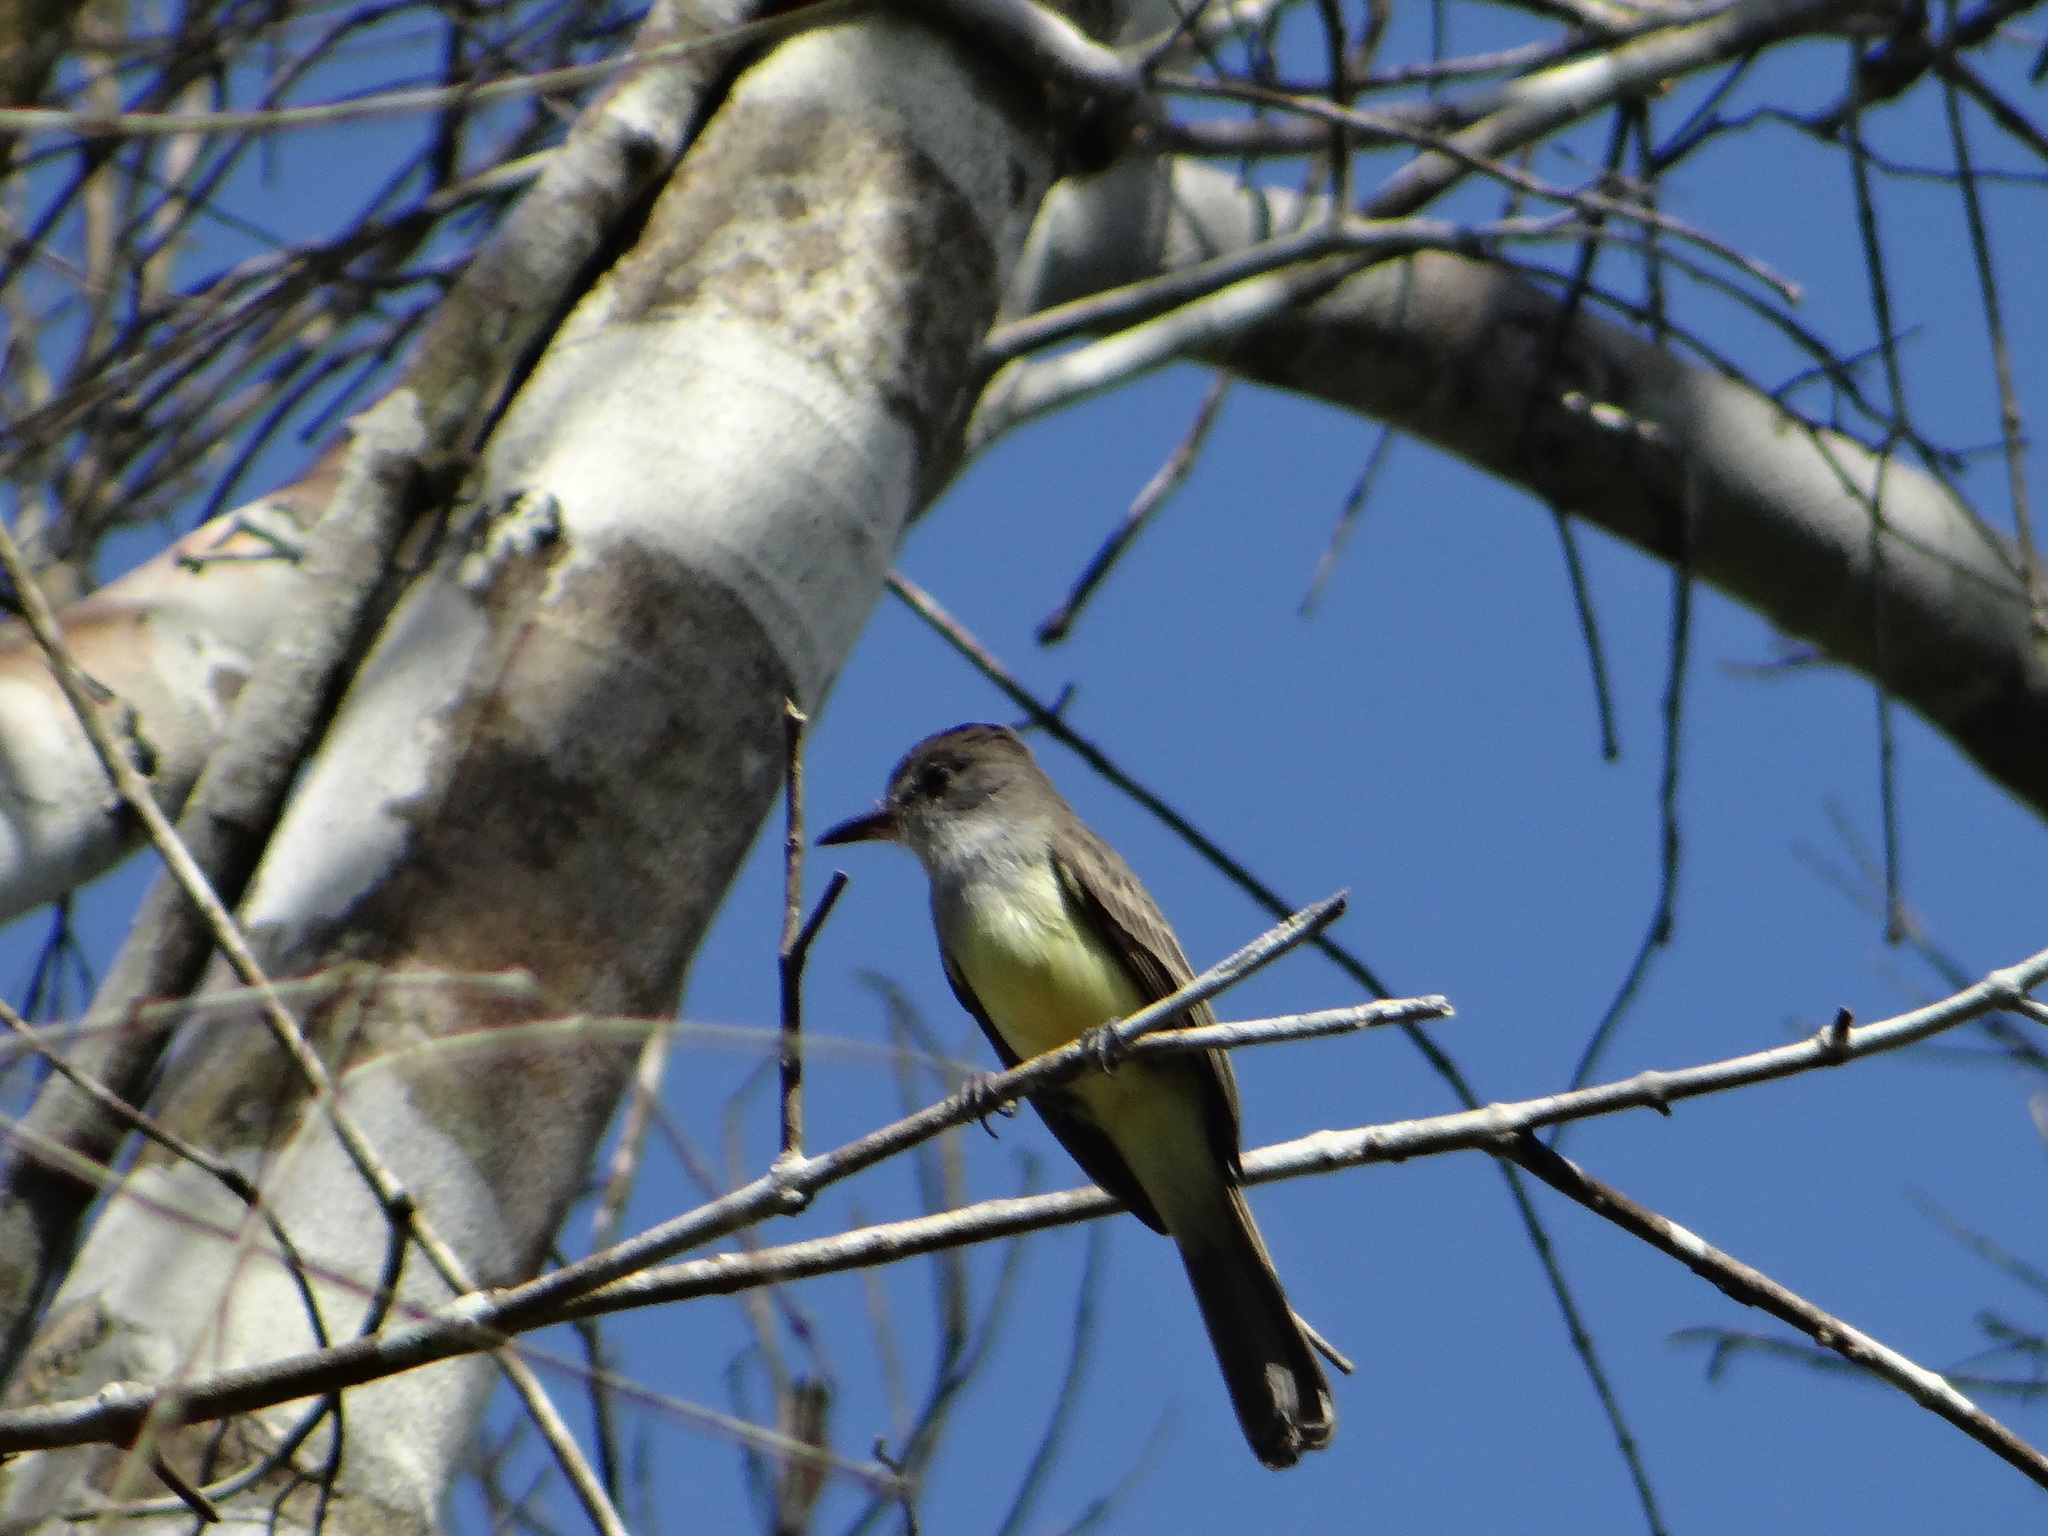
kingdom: Animalia
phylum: Chordata
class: Aves
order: Passeriformes
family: Tyrannidae
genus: Myiarchus
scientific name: Myiarchus tyrannulus
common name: Brown-crested flycatcher
